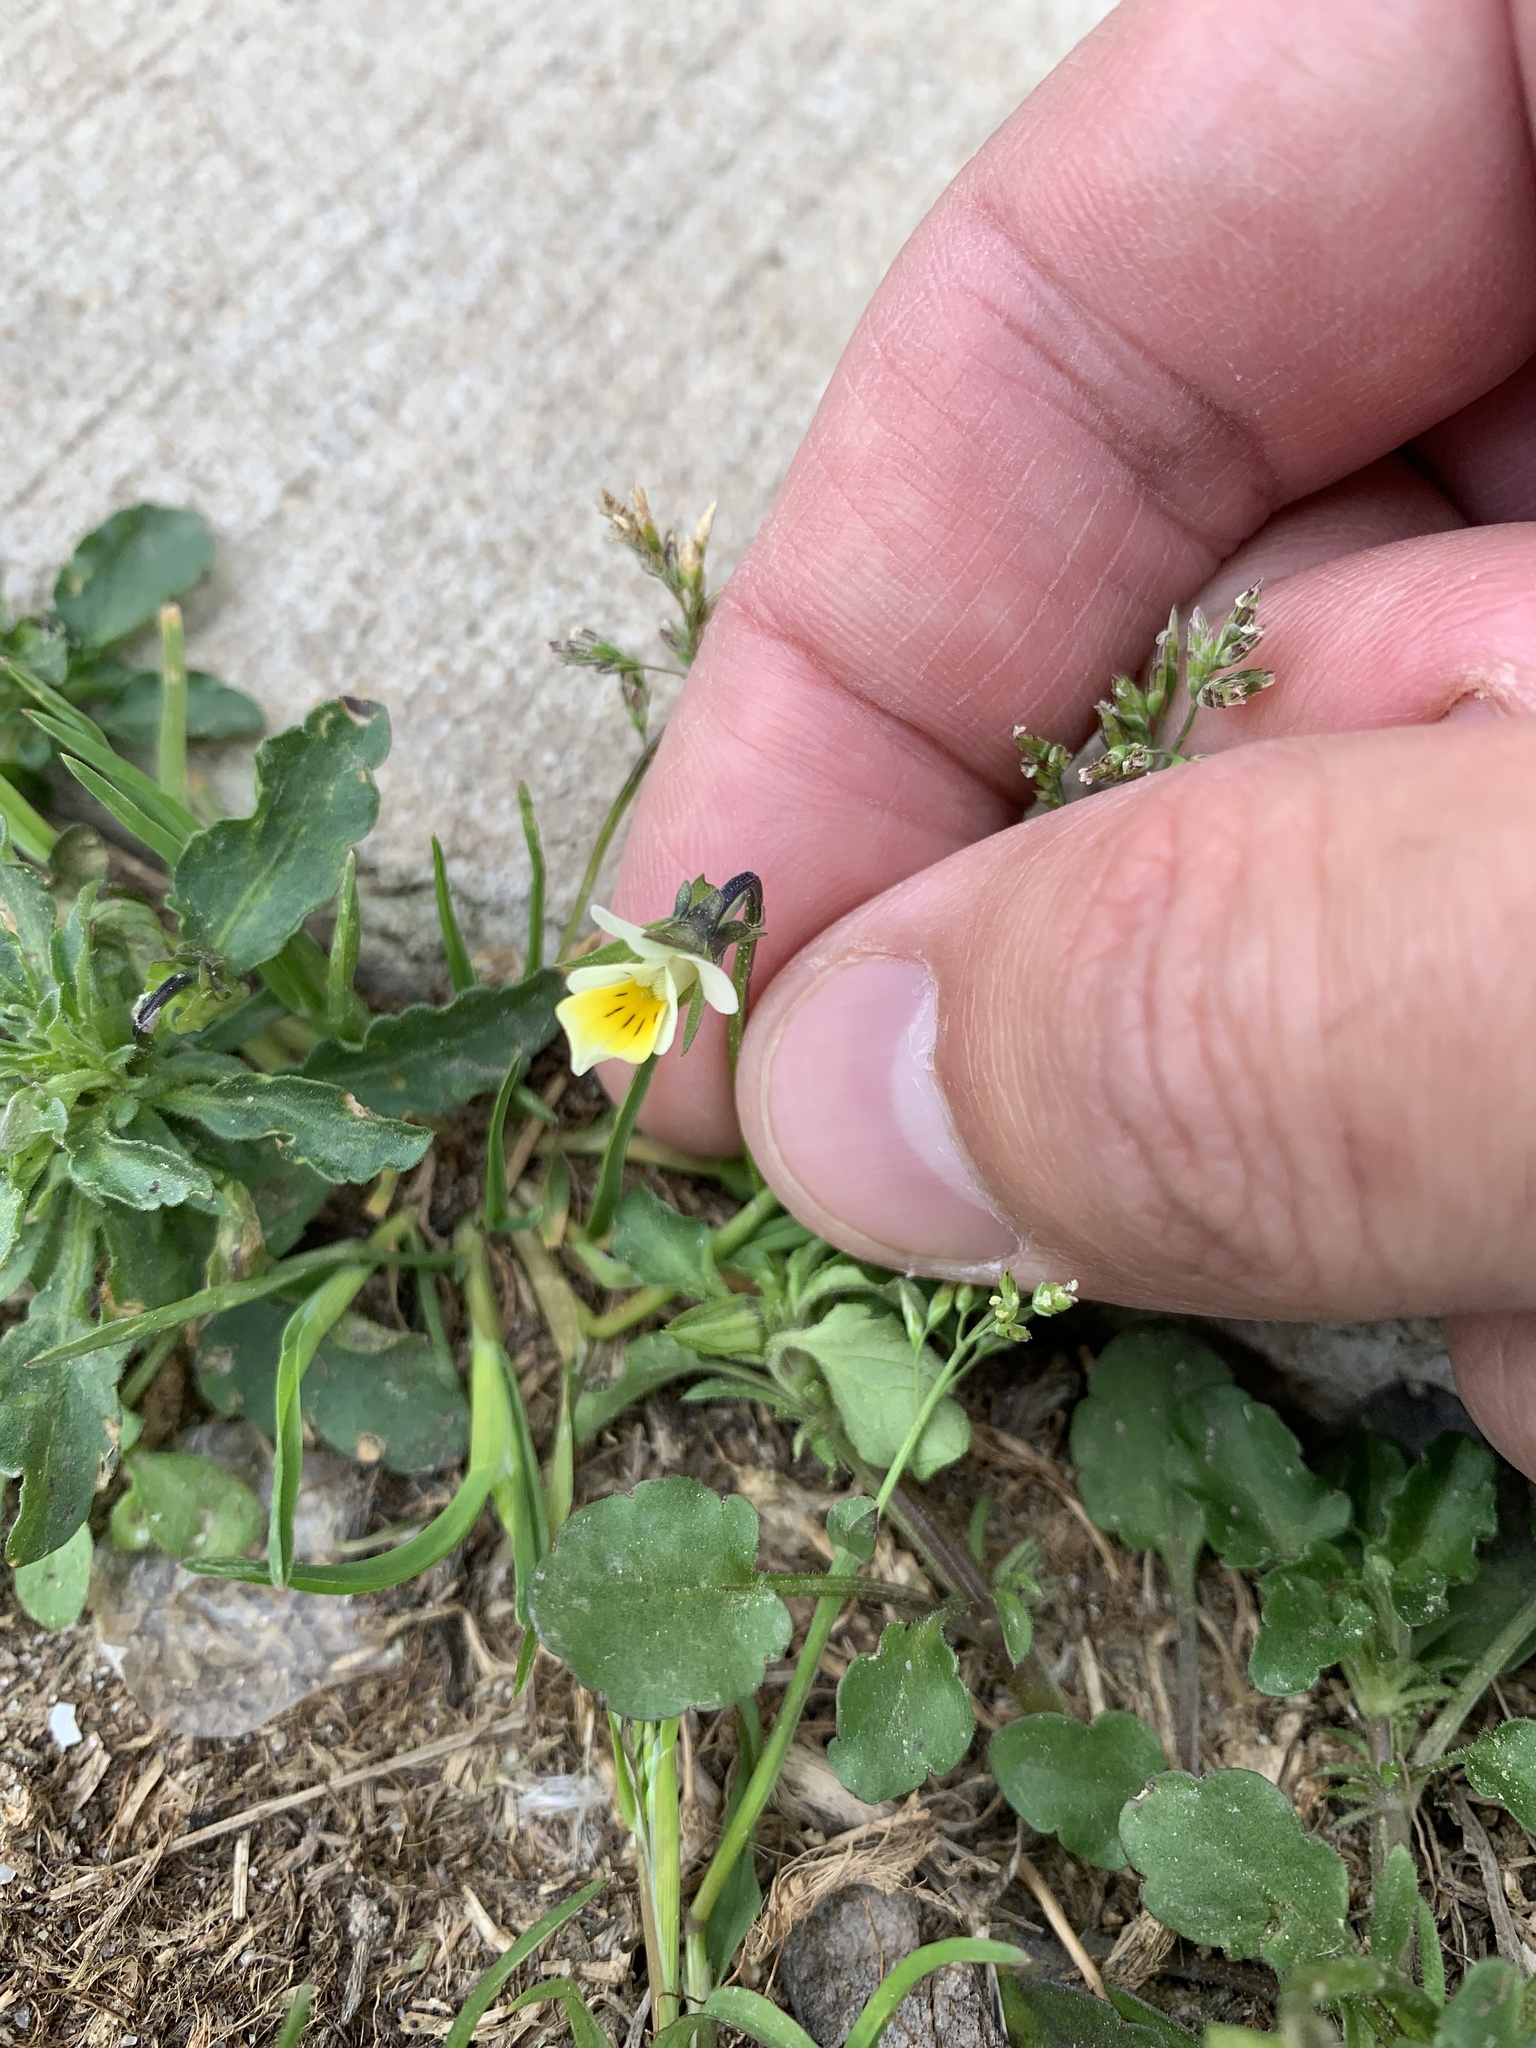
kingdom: Plantae
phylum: Tracheophyta
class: Magnoliopsida
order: Malpighiales
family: Violaceae
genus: Viola
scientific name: Viola arvensis
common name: Field pansy
